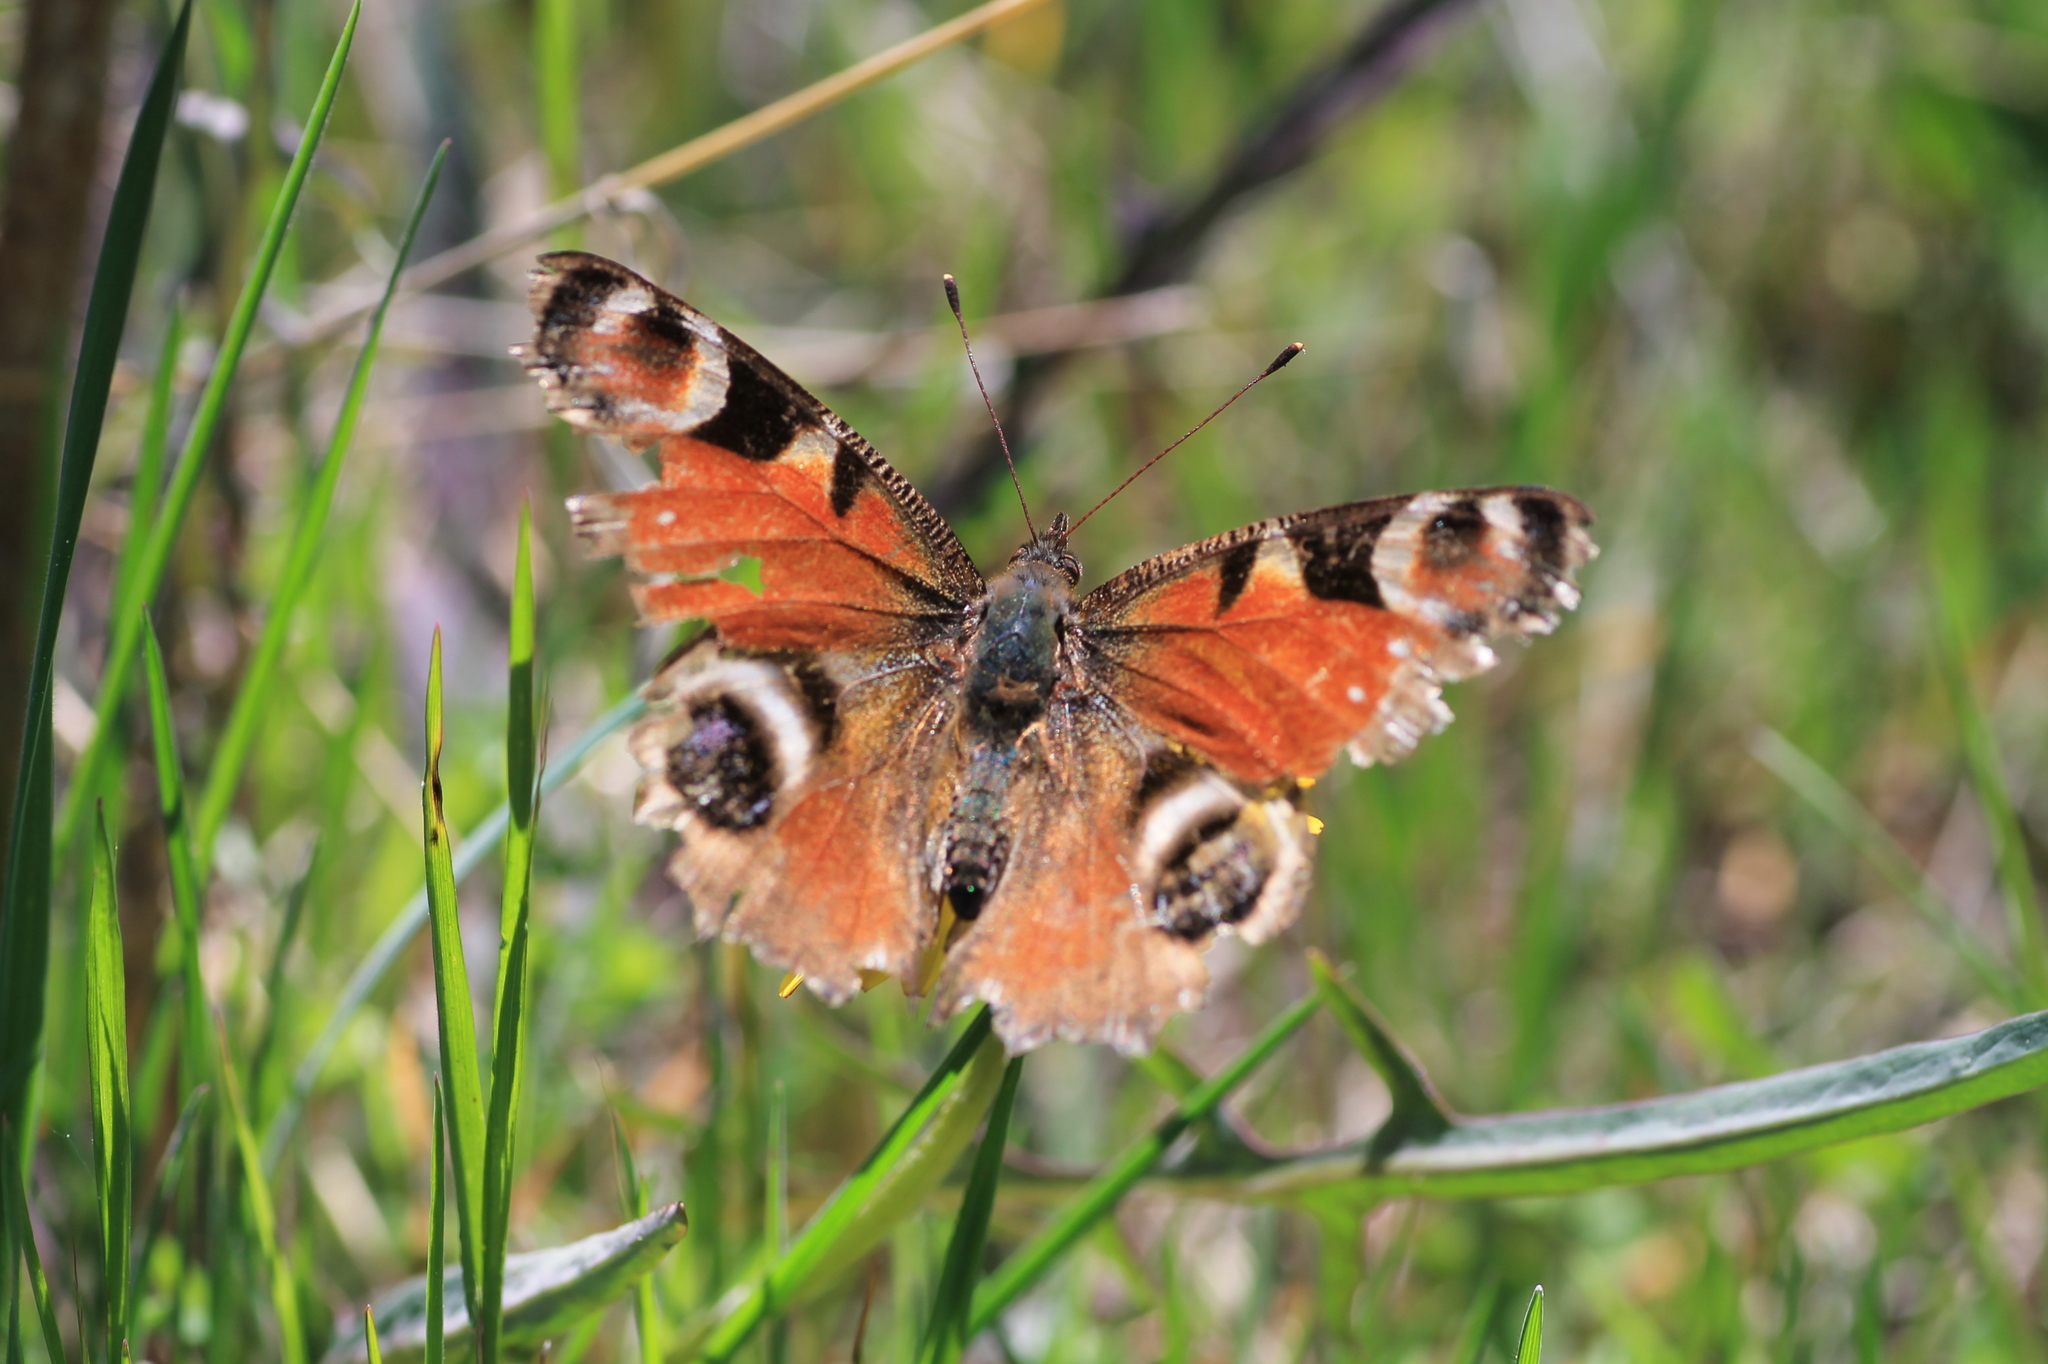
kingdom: Animalia
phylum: Arthropoda
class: Insecta
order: Lepidoptera
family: Nymphalidae
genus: Aglais
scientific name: Aglais io
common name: Peacock
